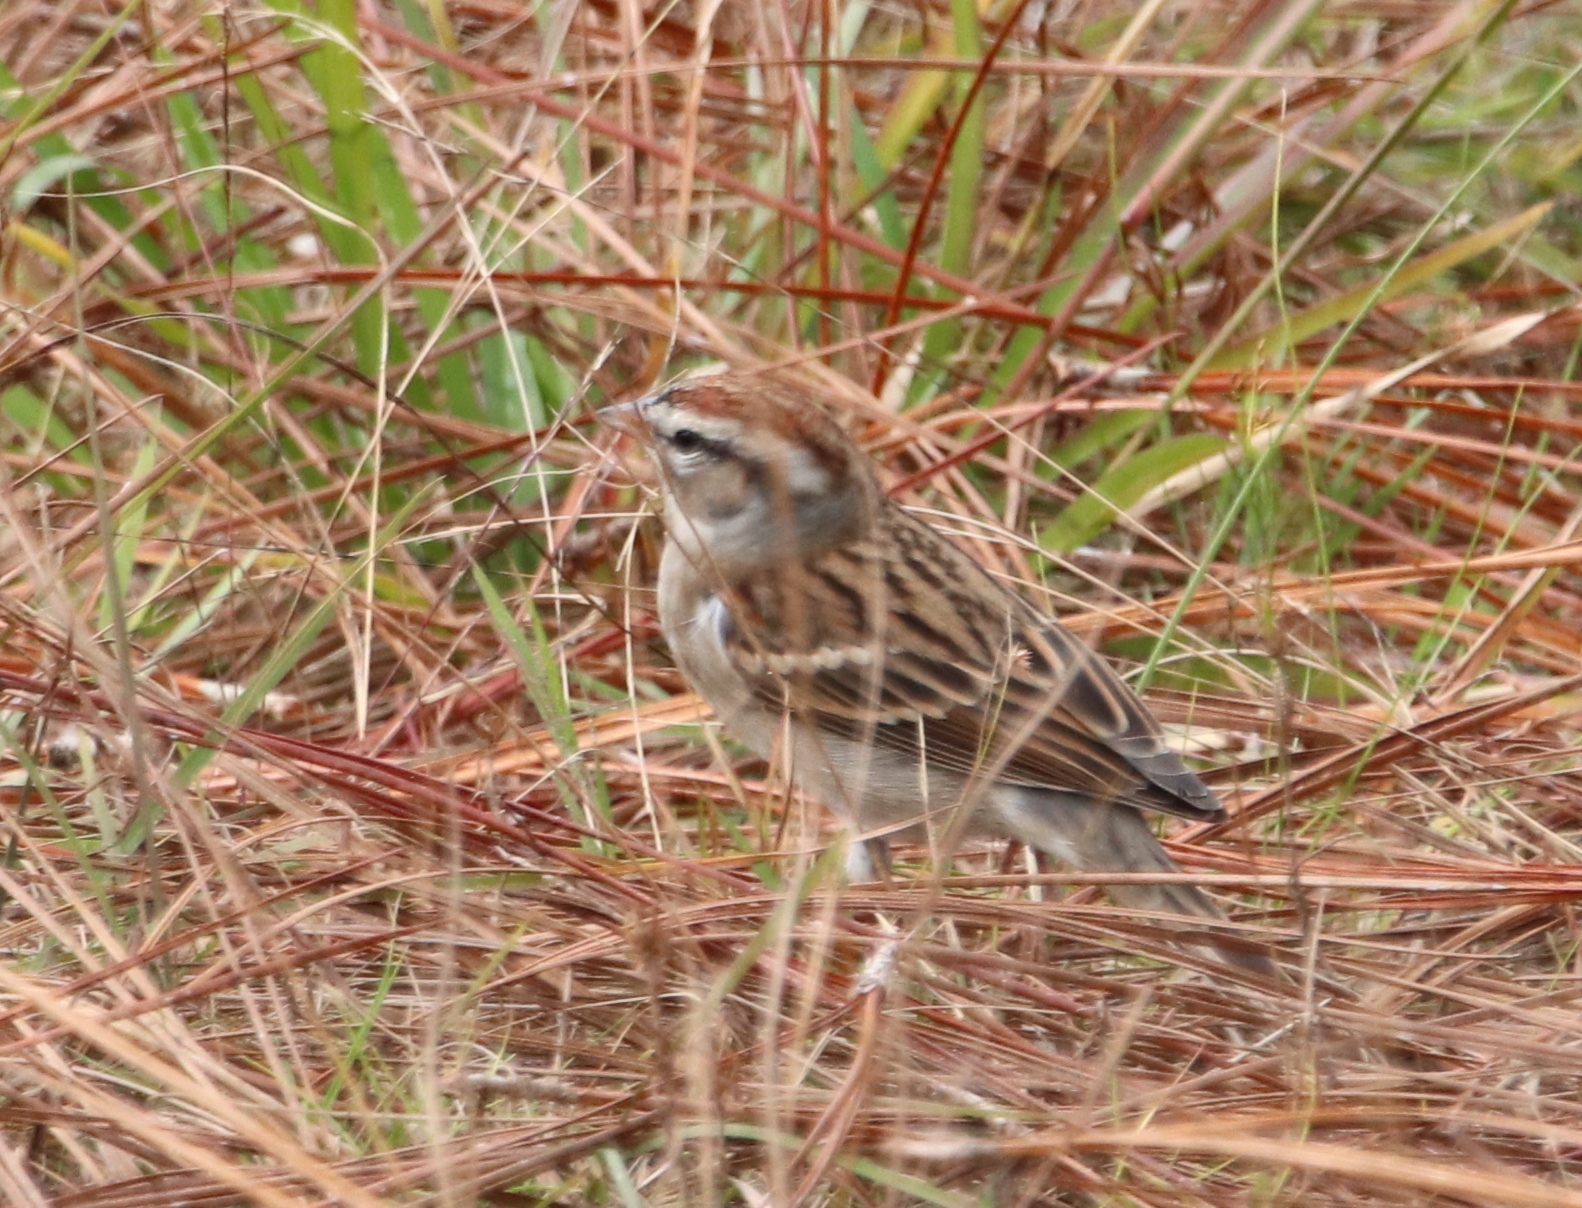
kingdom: Animalia
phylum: Chordata
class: Aves
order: Passeriformes
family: Passerellidae
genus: Spizella
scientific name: Spizella passerina
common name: Chipping sparrow
